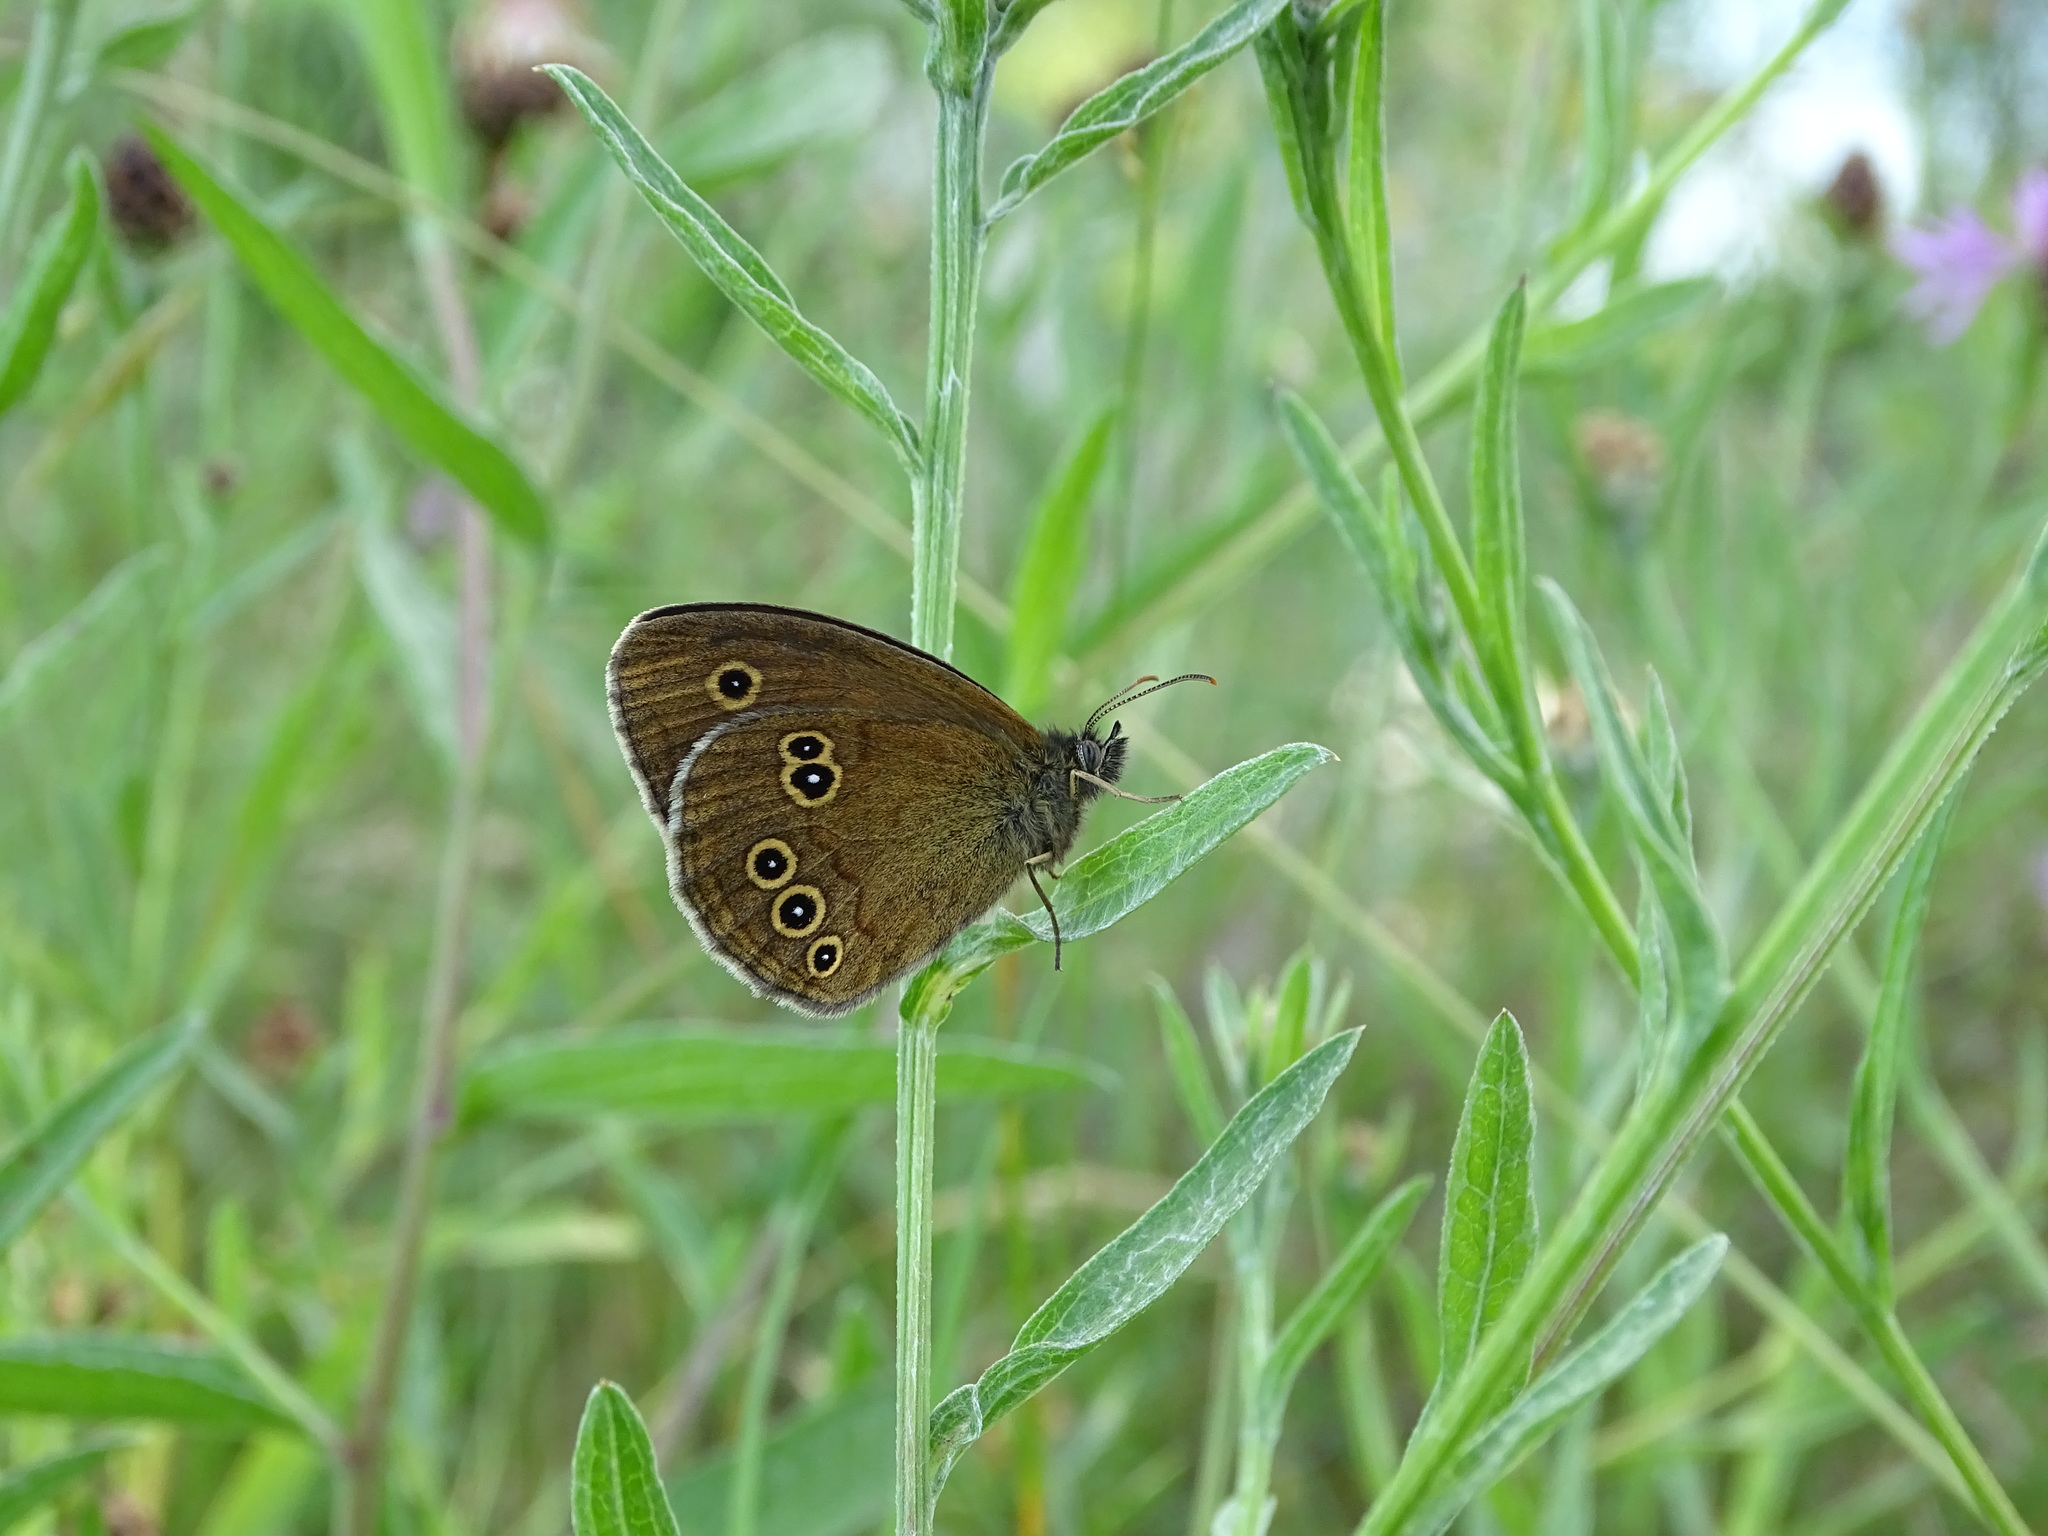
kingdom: Animalia
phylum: Arthropoda
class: Insecta
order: Lepidoptera
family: Nymphalidae
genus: Aphantopus
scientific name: Aphantopus hyperantus
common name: Ringlet
